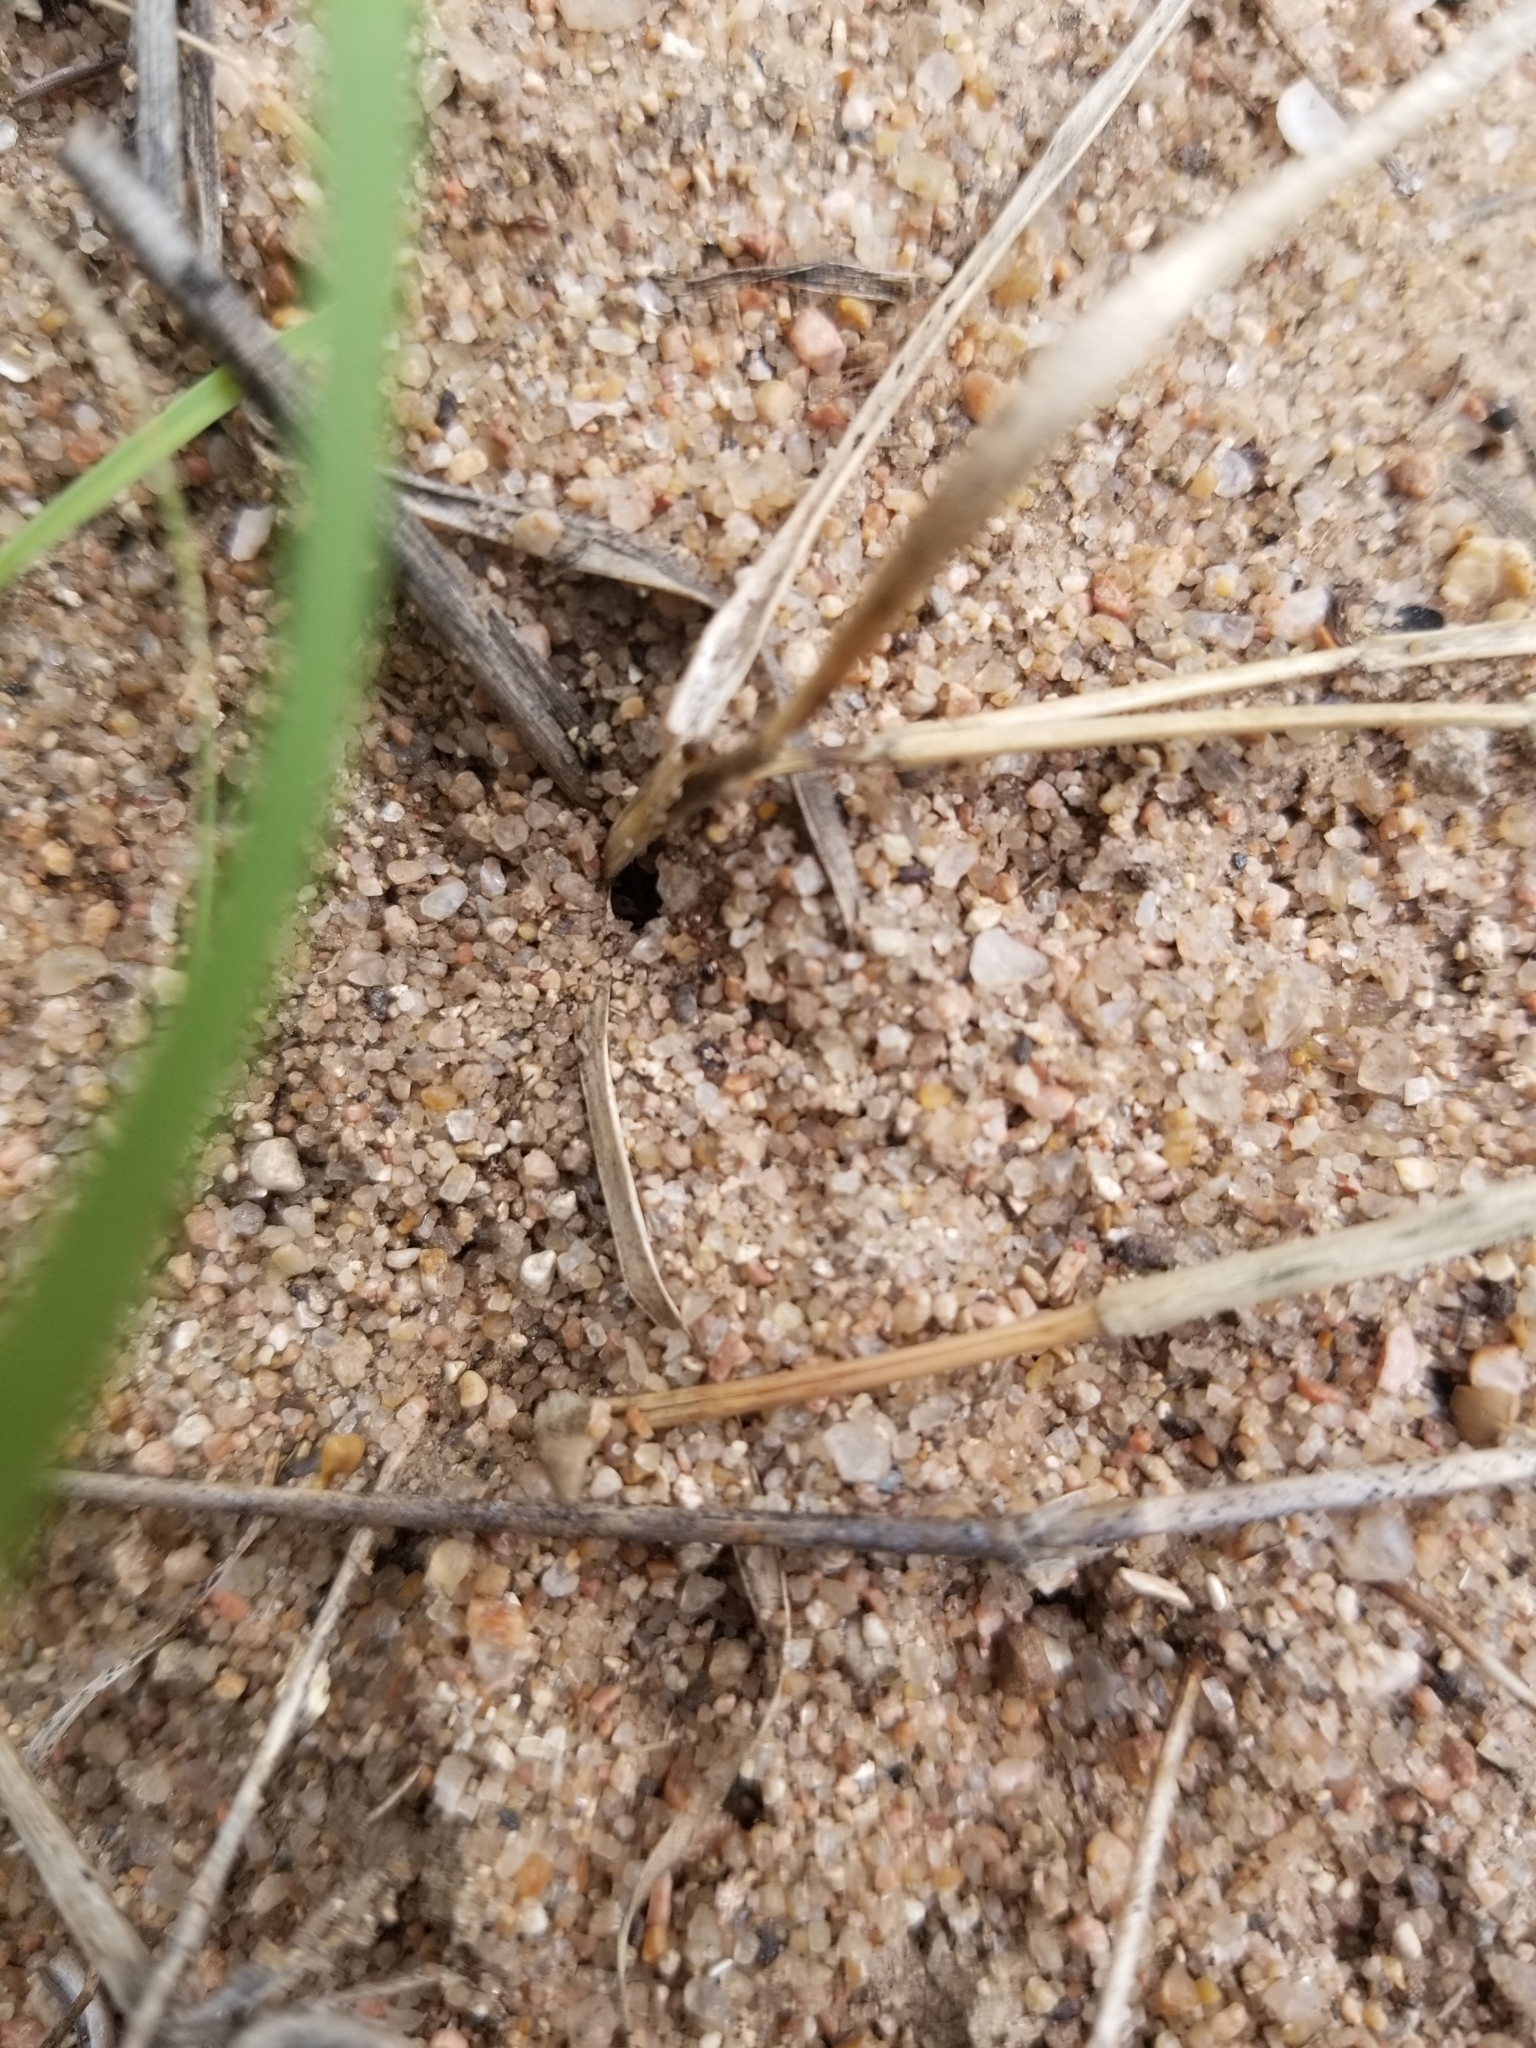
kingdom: Animalia
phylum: Arthropoda
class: Insecta
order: Hymenoptera
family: Formicidae
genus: Solenopsis
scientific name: Solenopsis invicta
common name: Red imported fire ant
